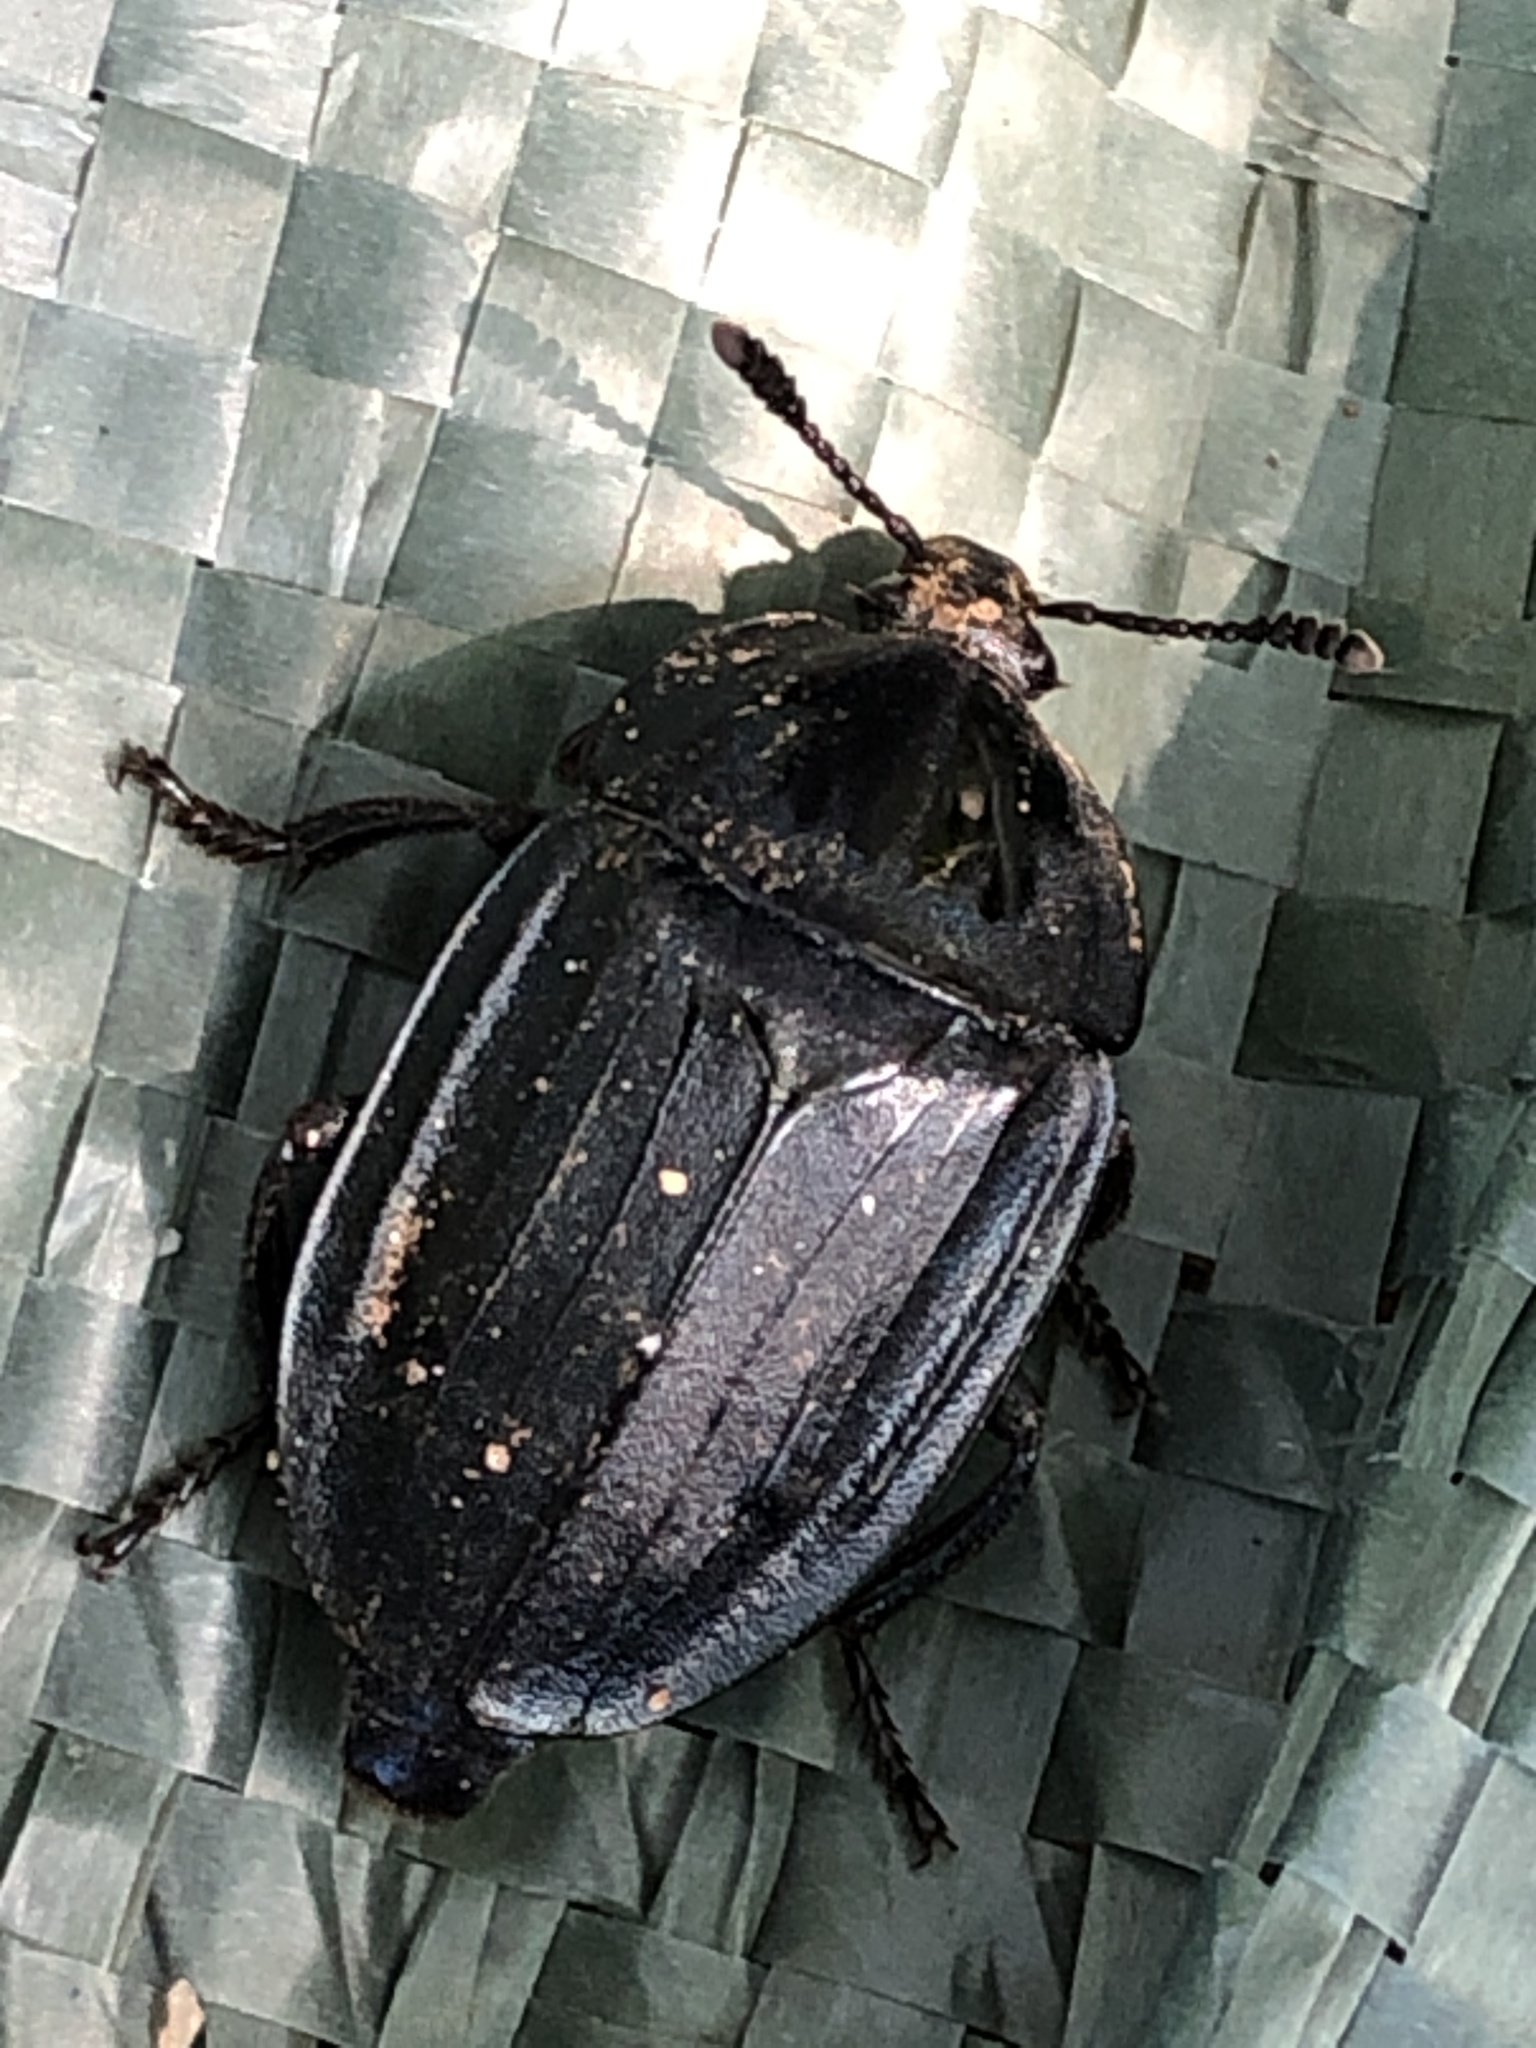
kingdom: Animalia
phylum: Arthropoda
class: Insecta
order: Coleoptera
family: Silphidae
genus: Eusilpha
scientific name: Eusilpha
